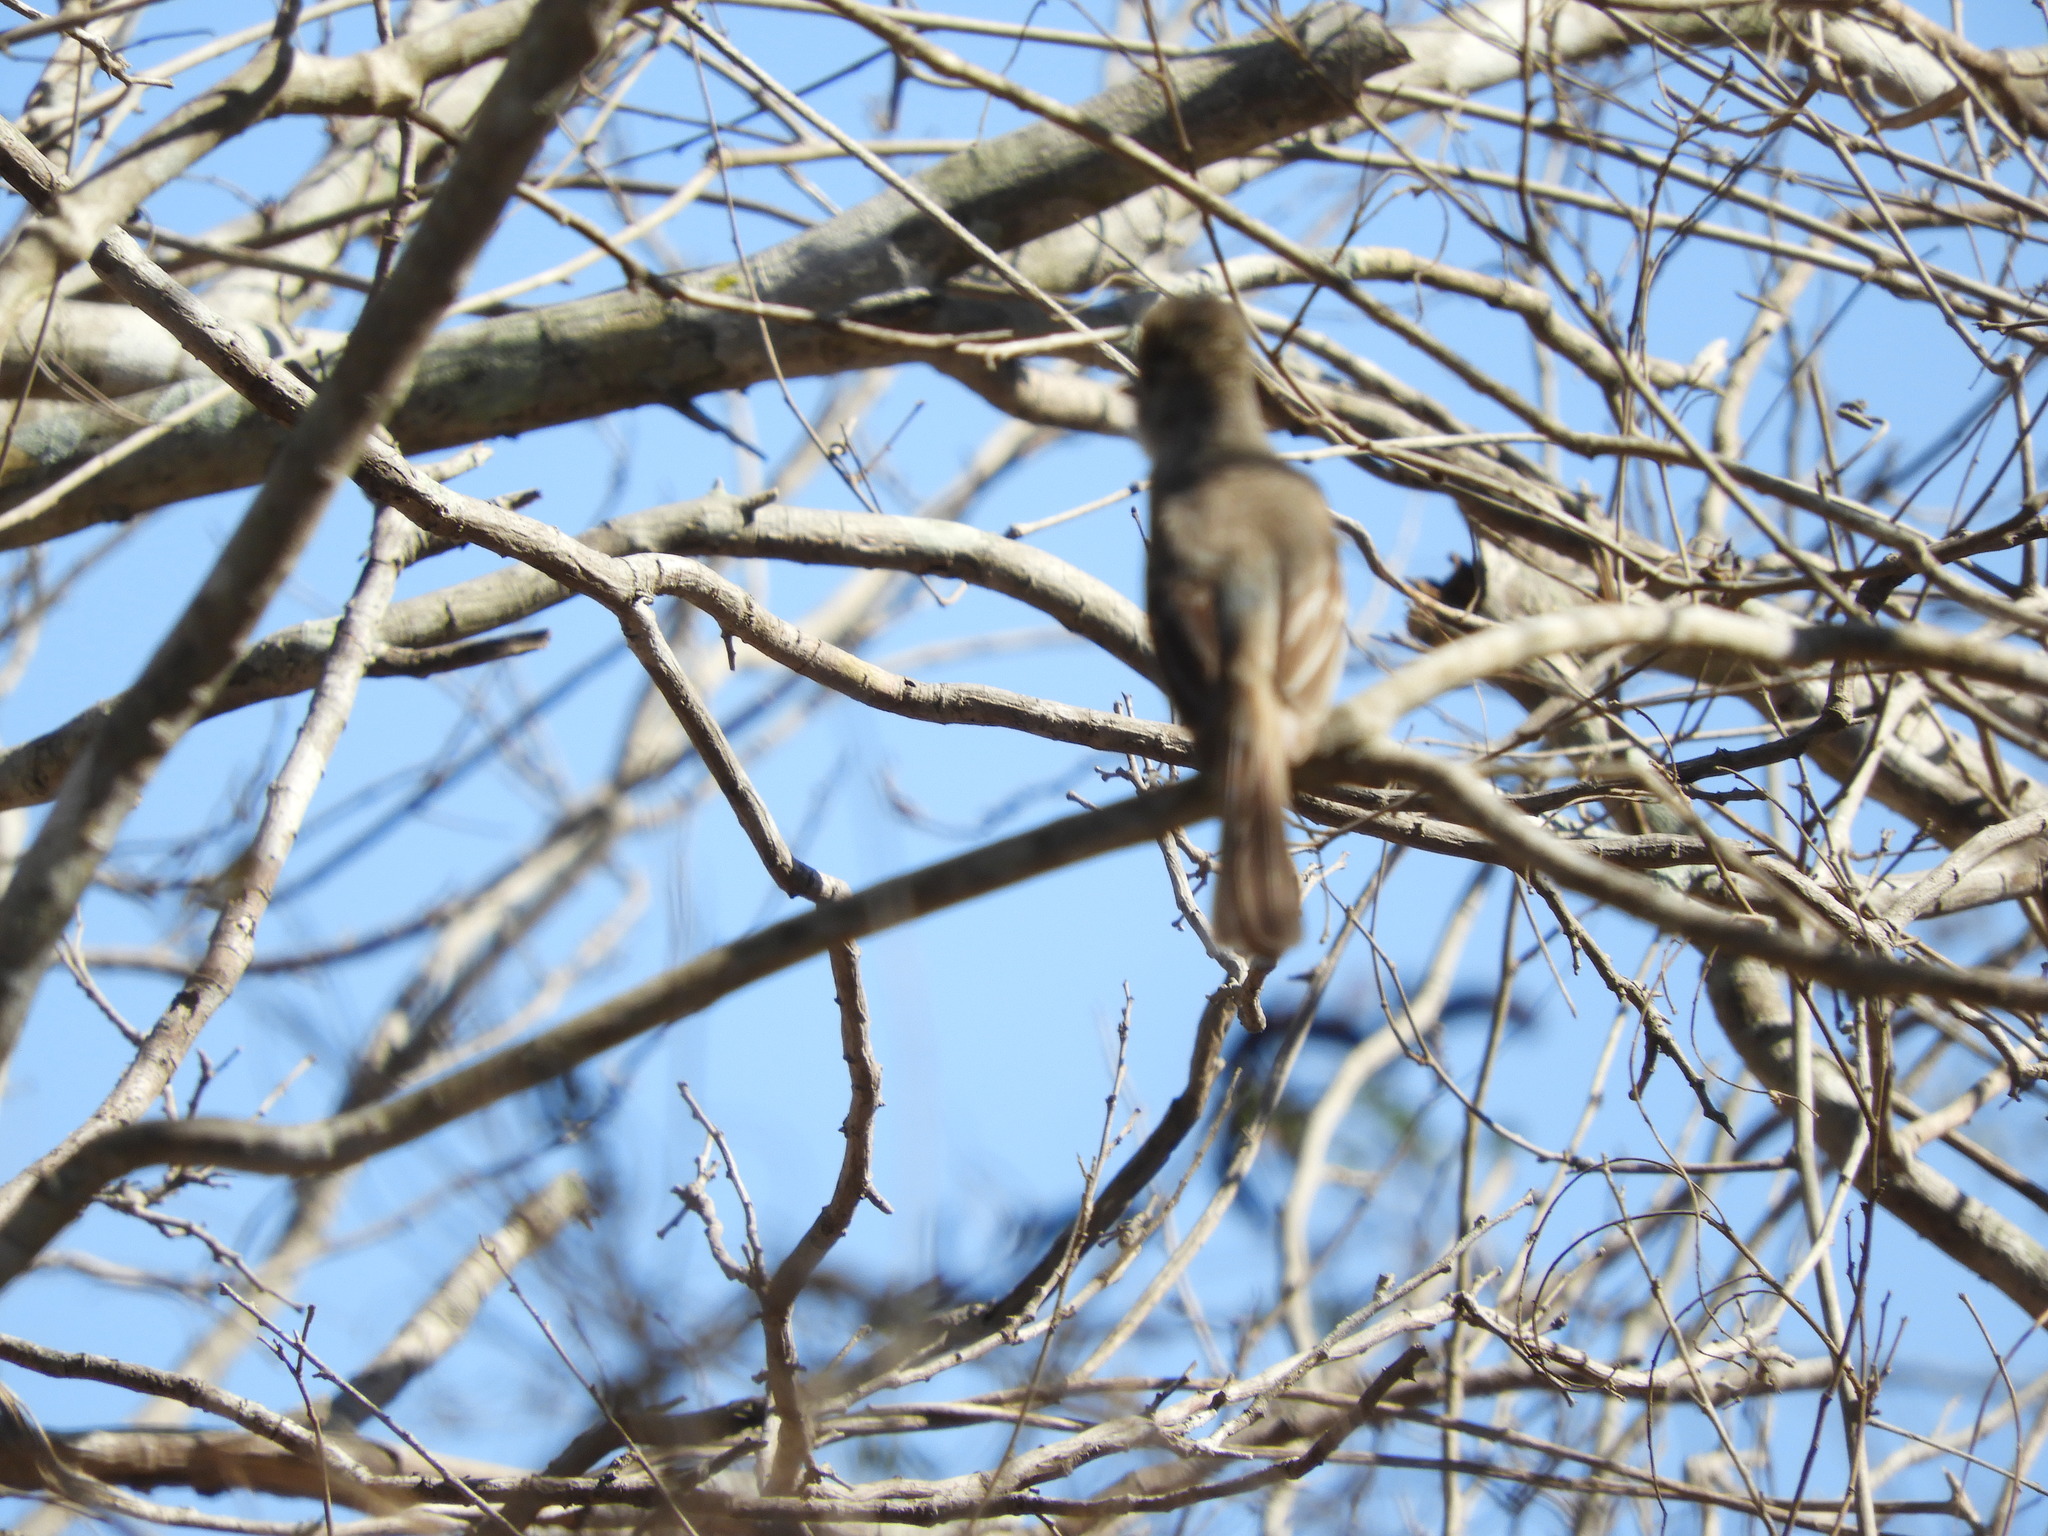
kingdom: Animalia
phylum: Chordata
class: Aves
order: Passeriformes
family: Tyrannidae
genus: Myiarchus
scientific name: Myiarchus
